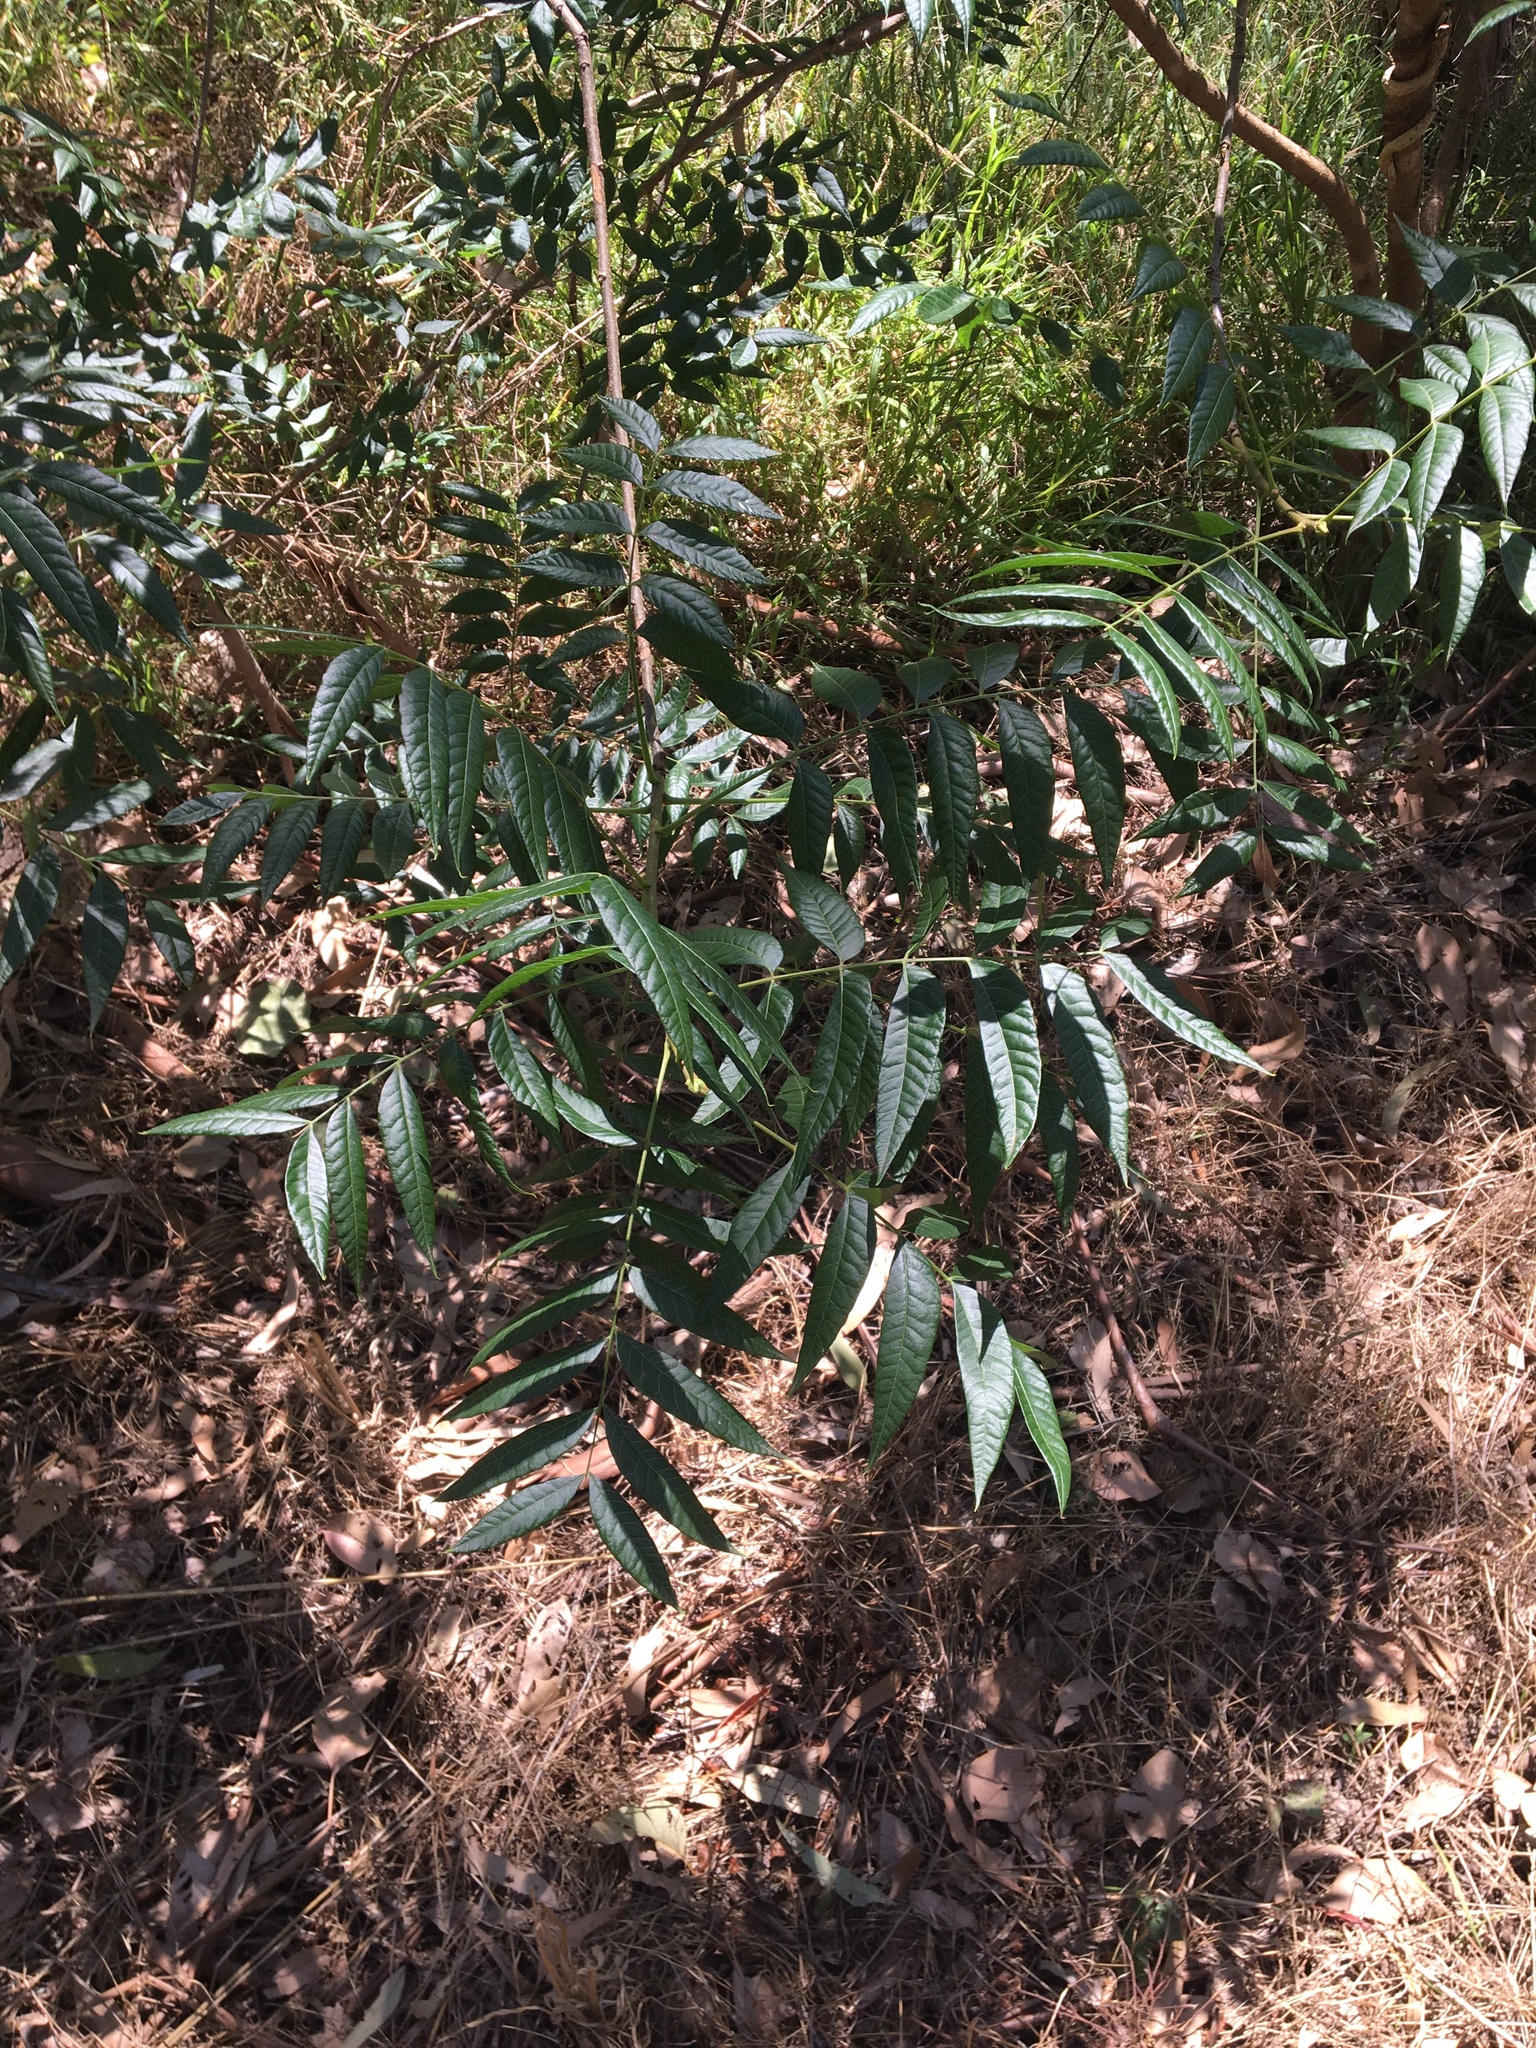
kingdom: Plantae
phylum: Tracheophyta
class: Magnoliopsida
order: Sapindales
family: Anacardiaceae
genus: Pistacia
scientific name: Pistacia chinensis
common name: Chinese pistache
